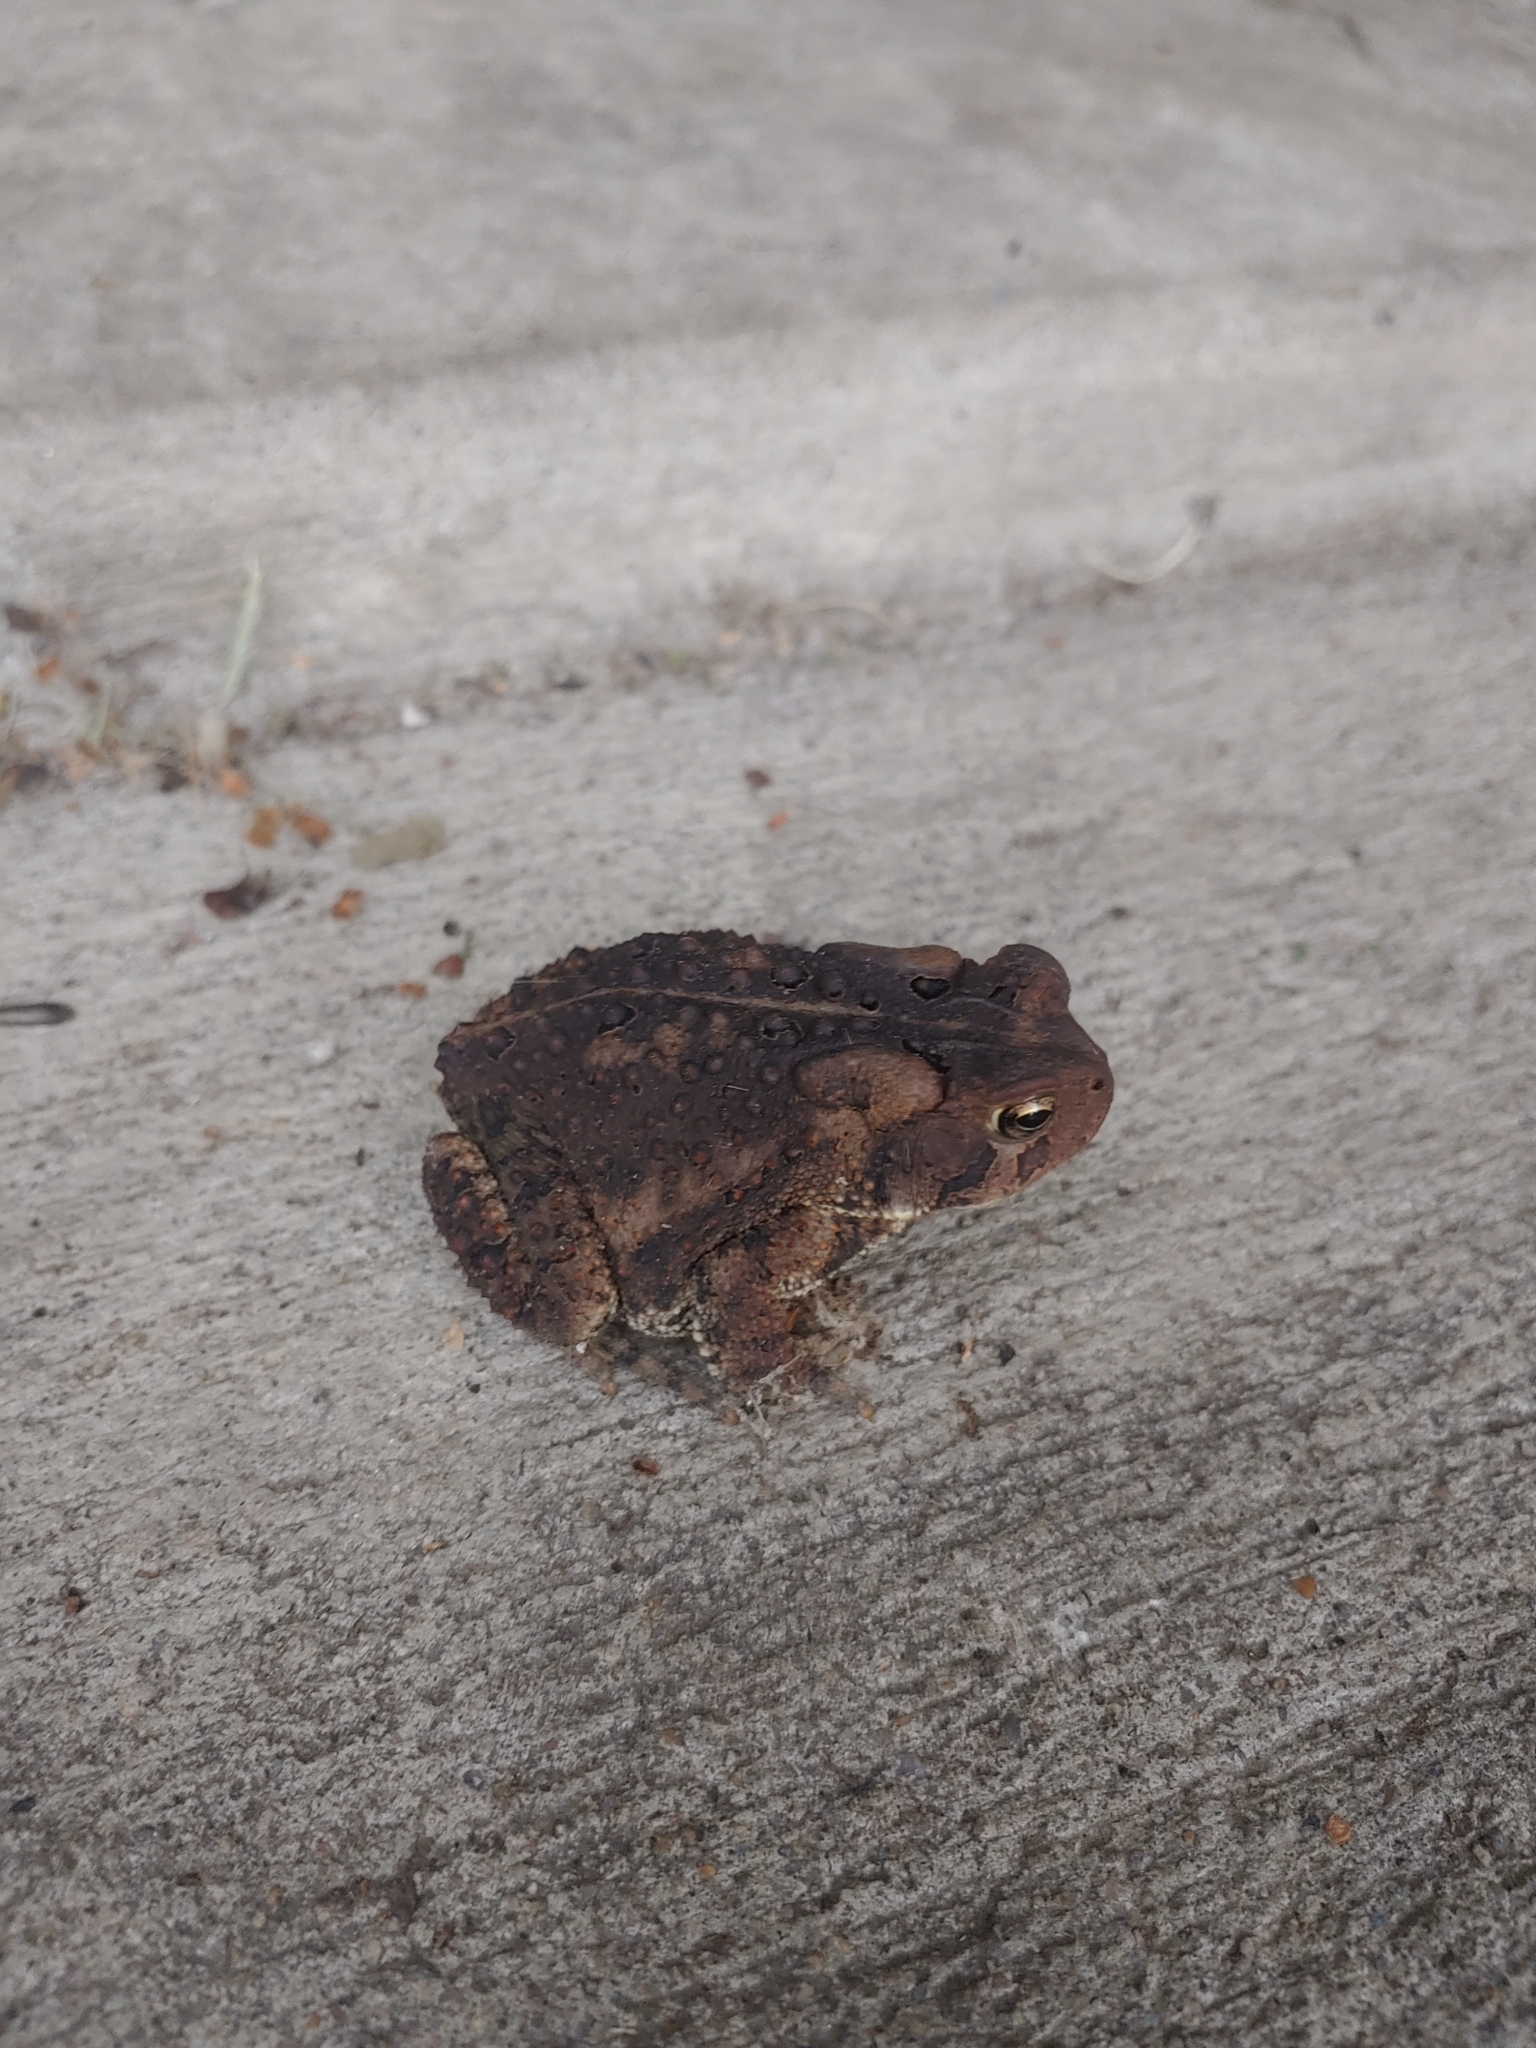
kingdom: Animalia
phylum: Chordata
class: Amphibia
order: Anura
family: Bufonidae
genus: Anaxyrus
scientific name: Anaxyrus americanus
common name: American toad
